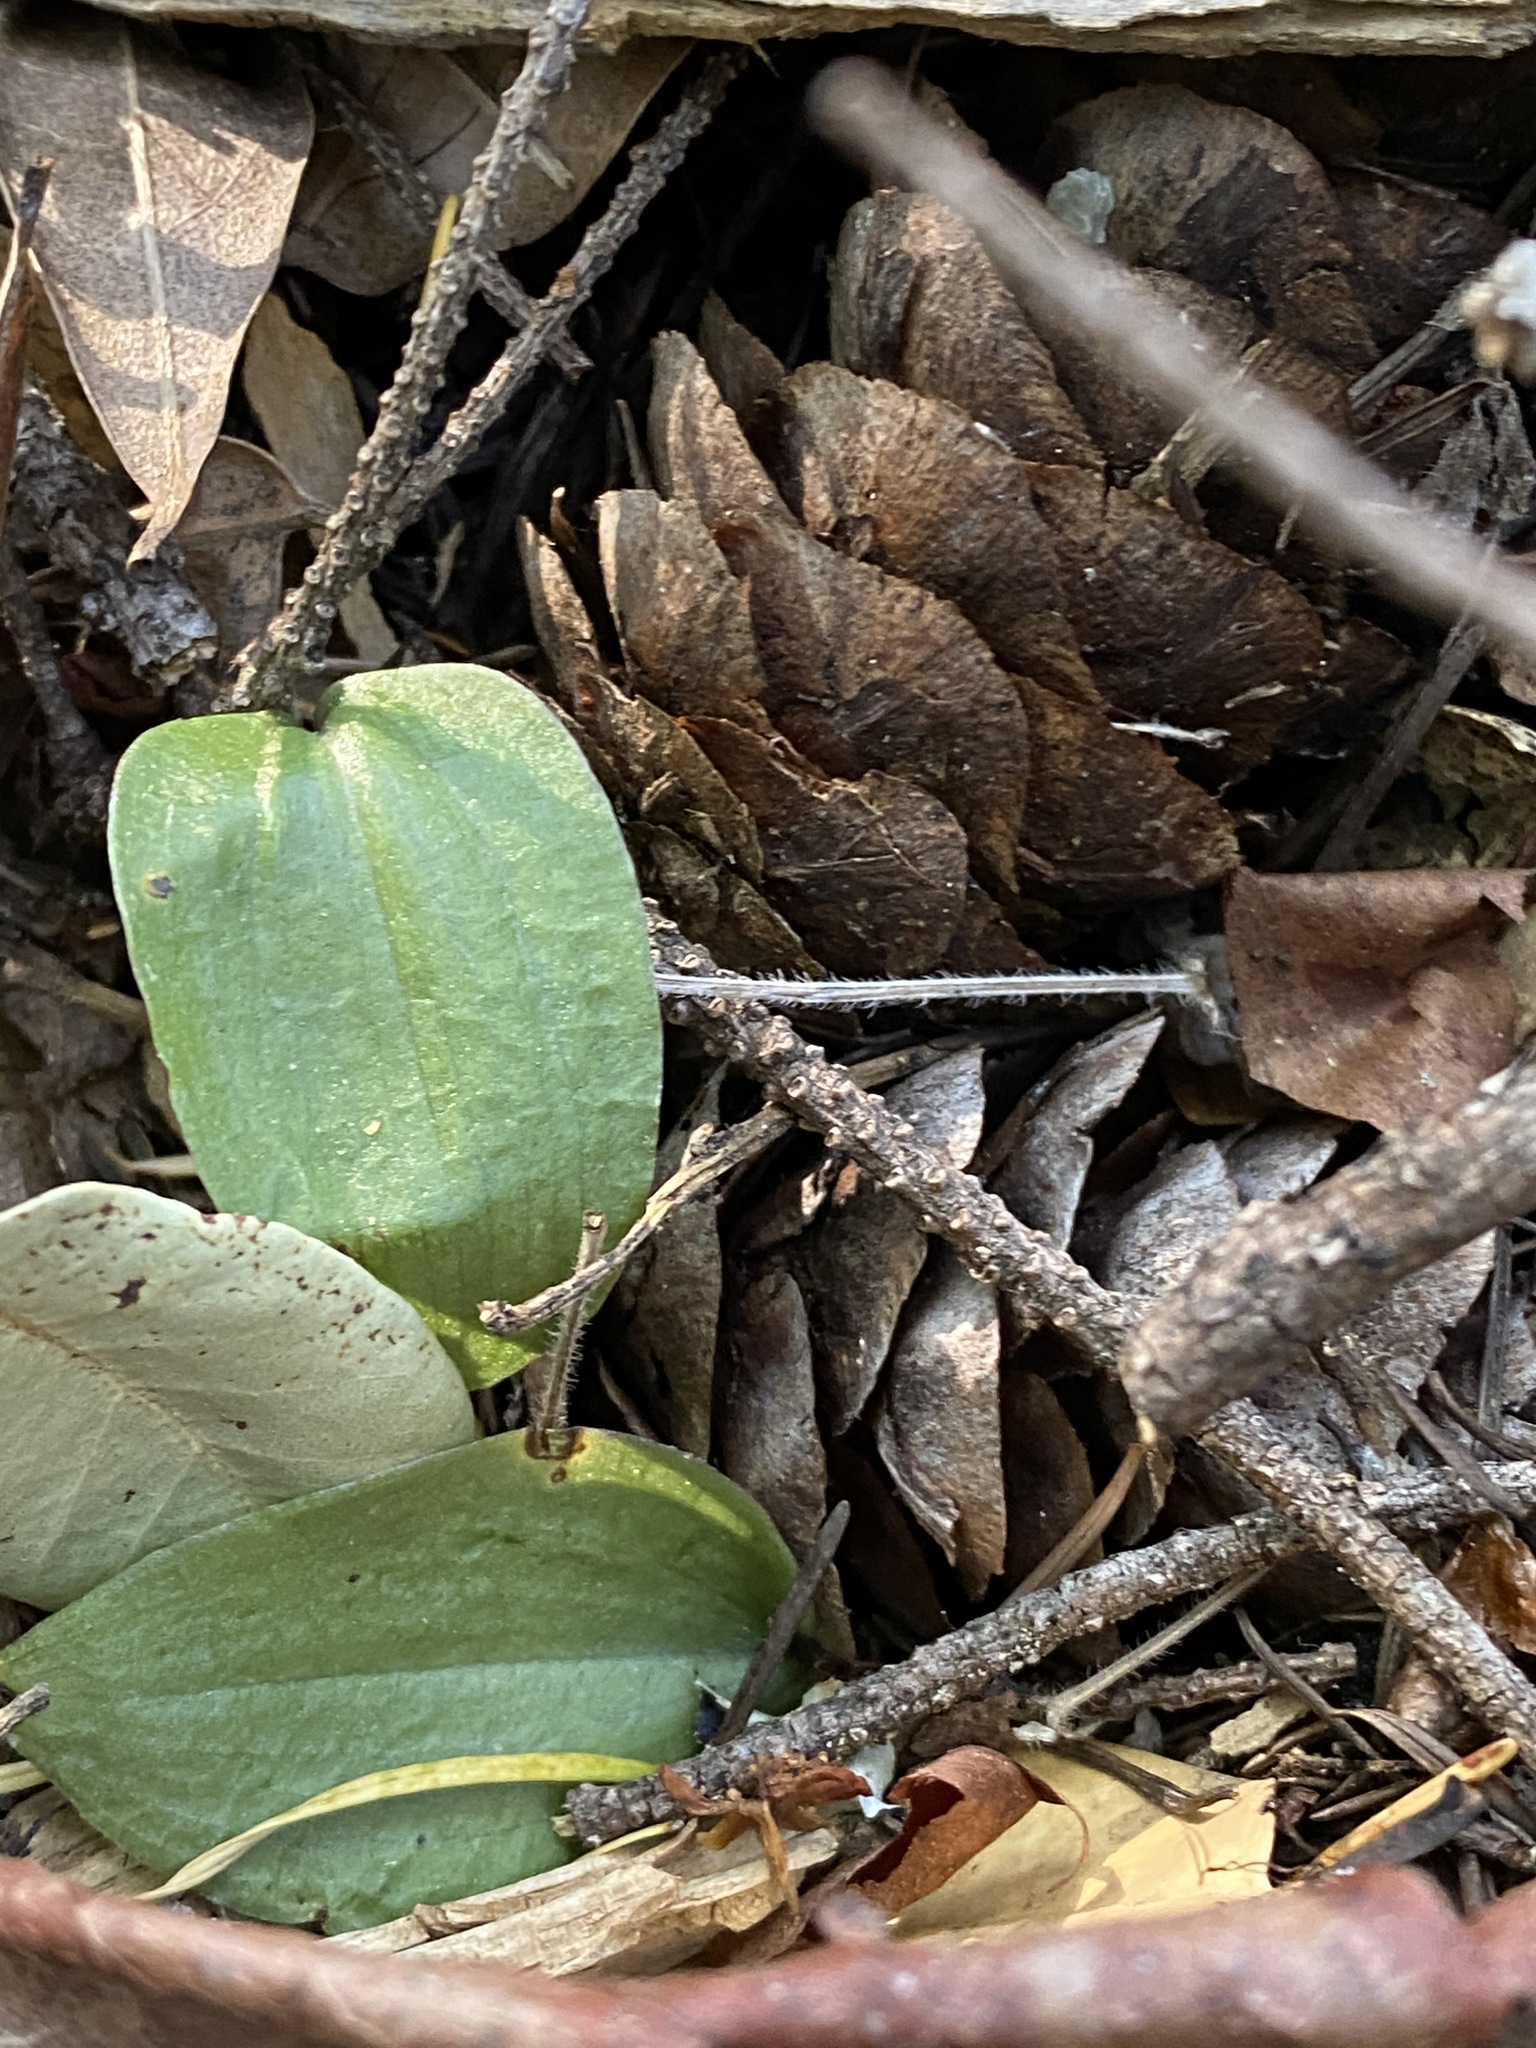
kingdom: Plantae
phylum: Tracheophyta
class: Liliopsida
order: Asparagales
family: Orchidaceae
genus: Calypso
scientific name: Calypso bulbosa
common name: Calypso
